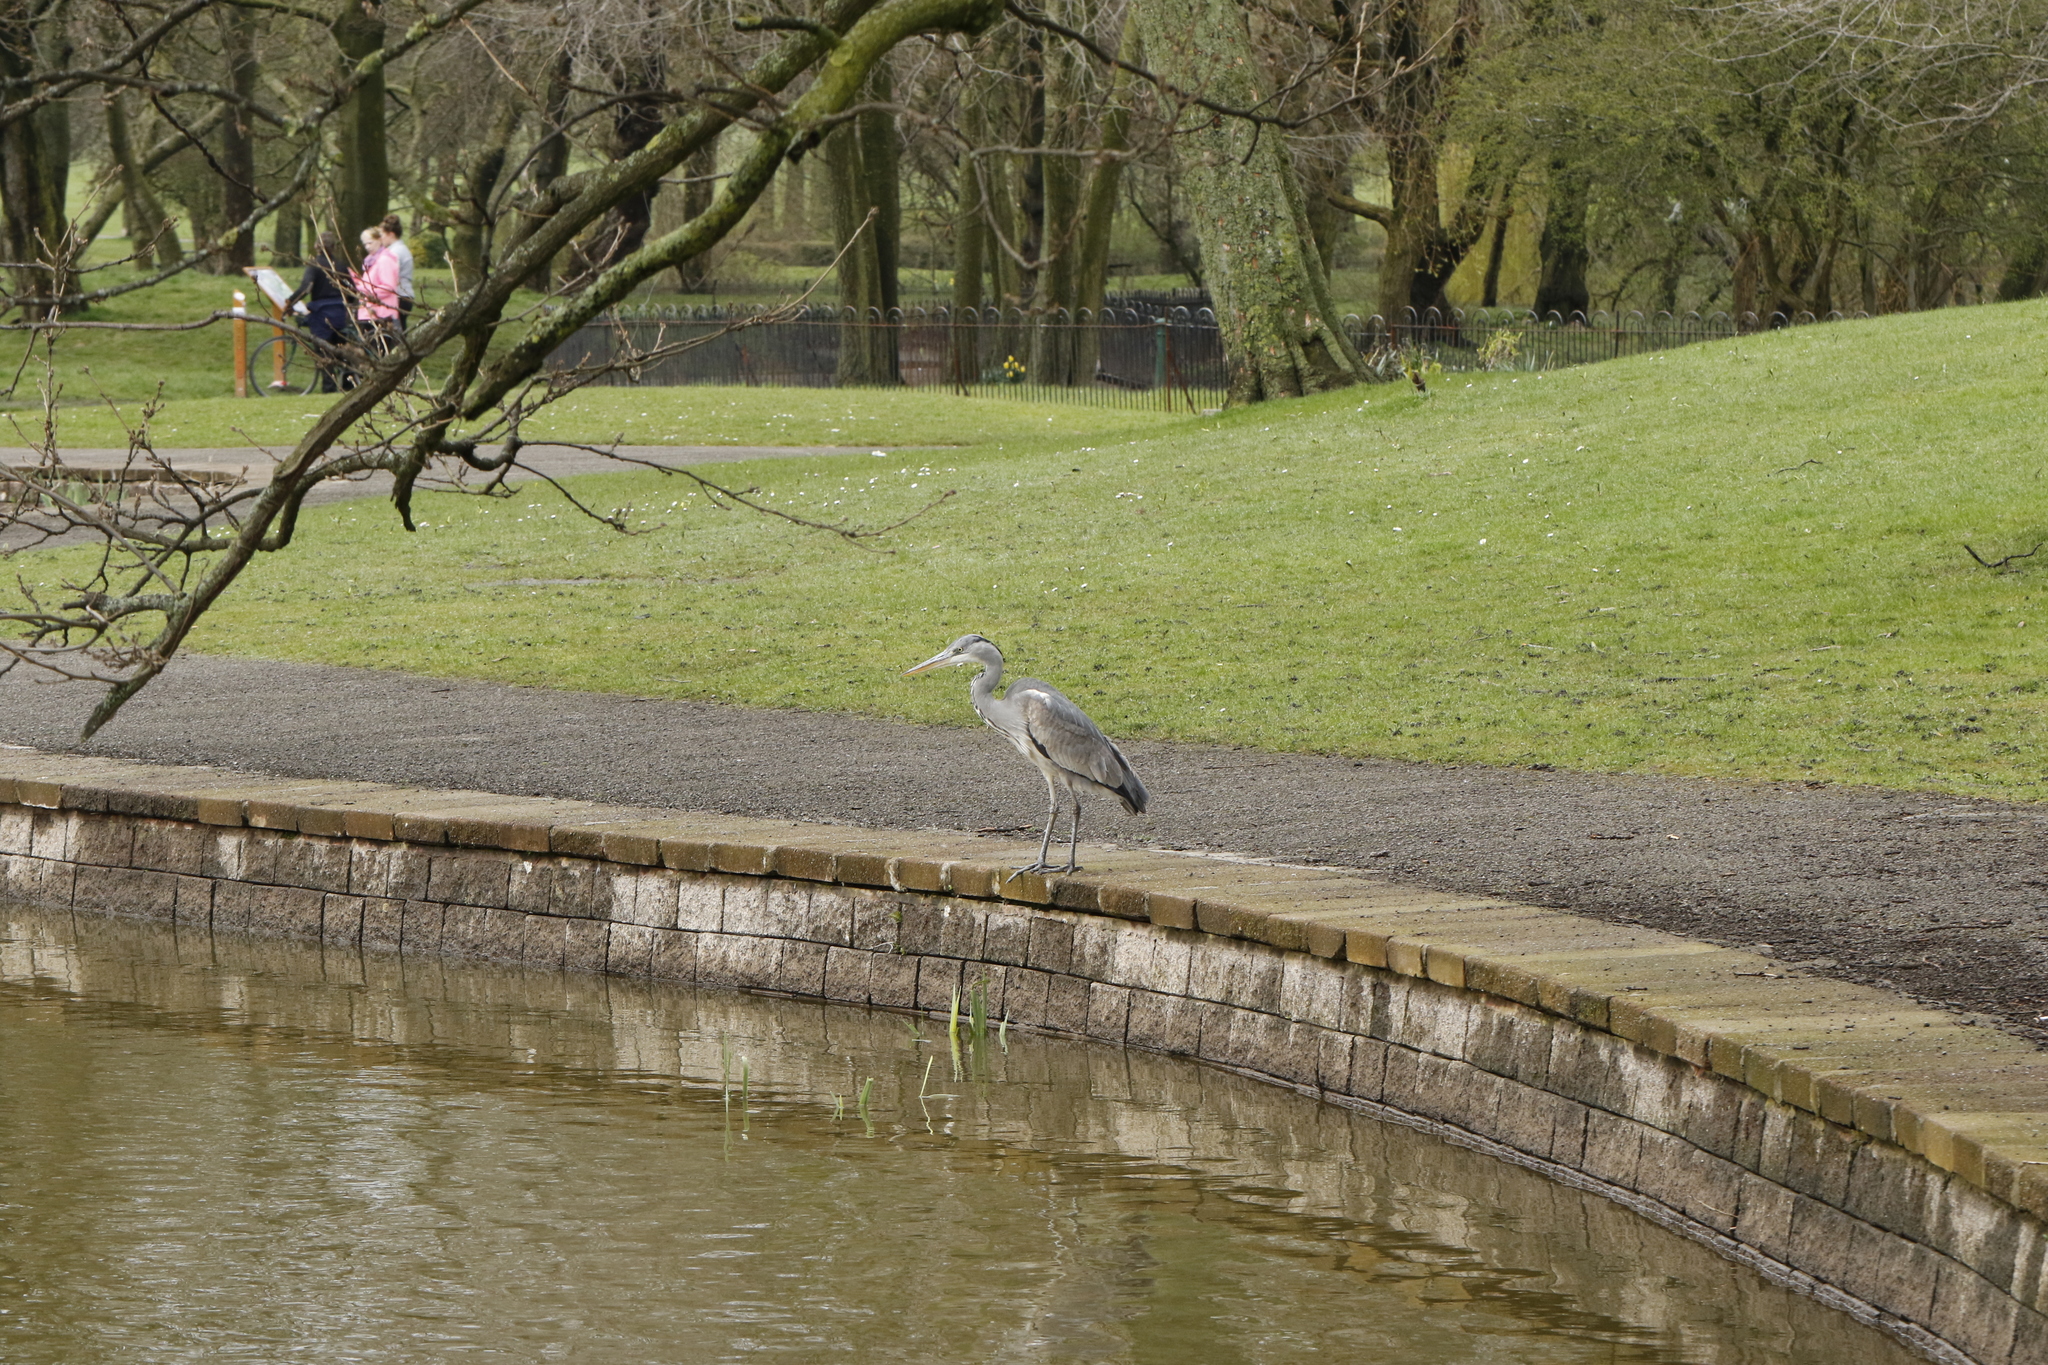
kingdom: Animalia
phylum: Chordata
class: Aves
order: Pelecaniformes
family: Ardeidae
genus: Ardea
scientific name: Ardea cinerea
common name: Grey heron
